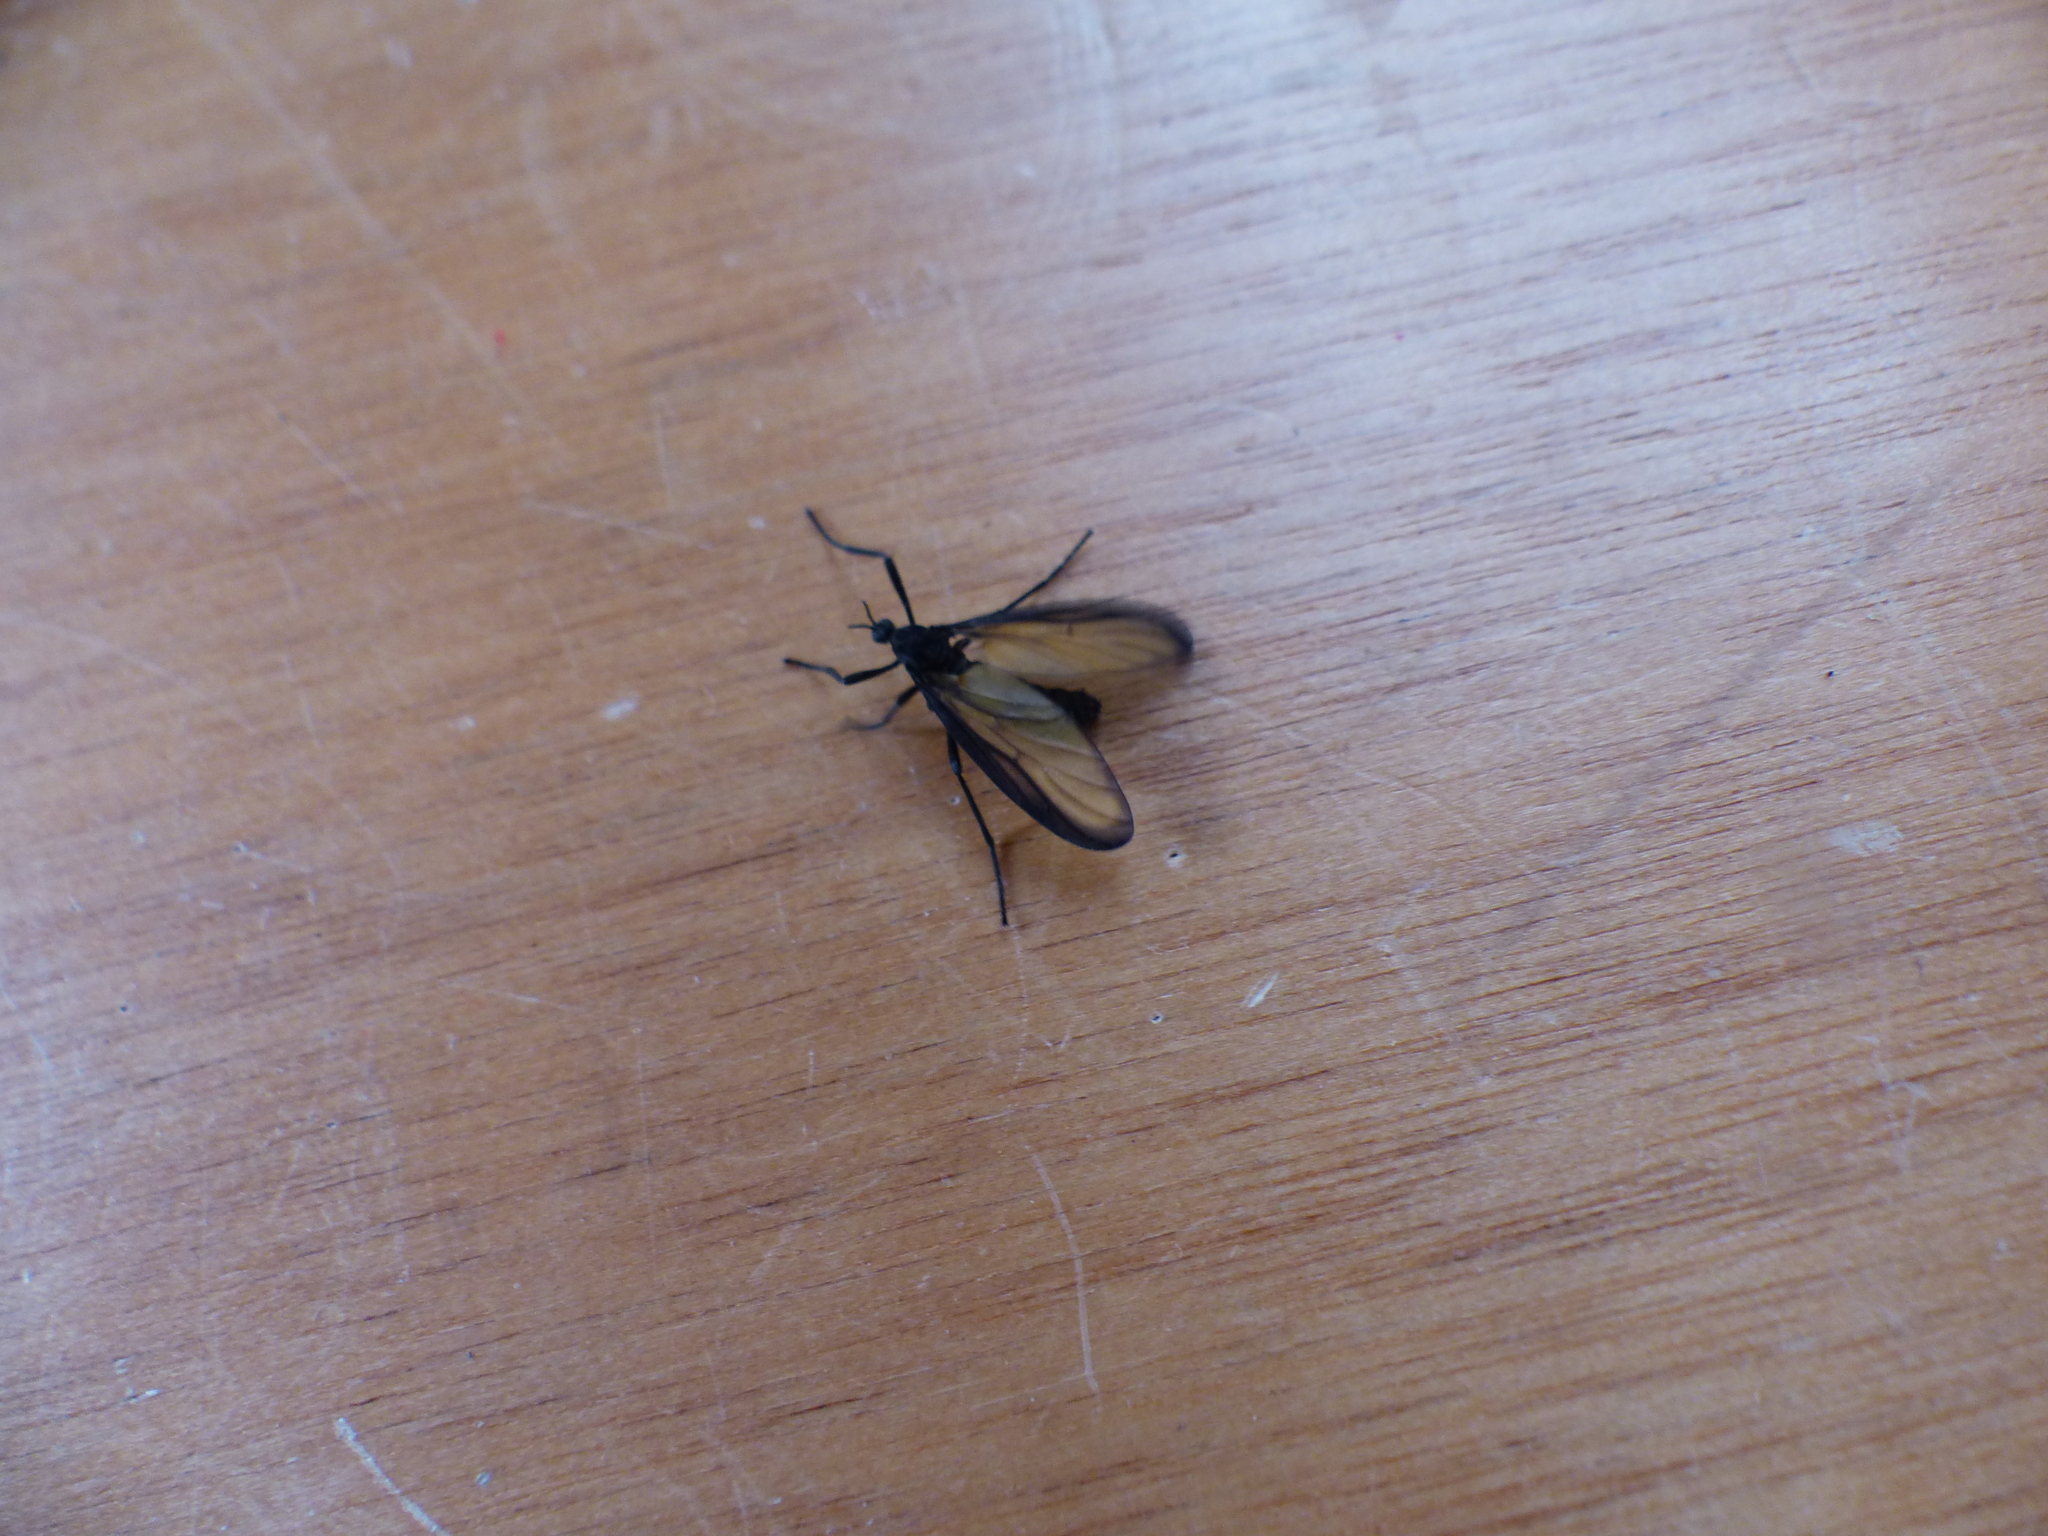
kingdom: Animalia
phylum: Arthropoda
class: Insecta
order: Diptera
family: Bibionidae
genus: Plecia
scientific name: Plecia imperialis
